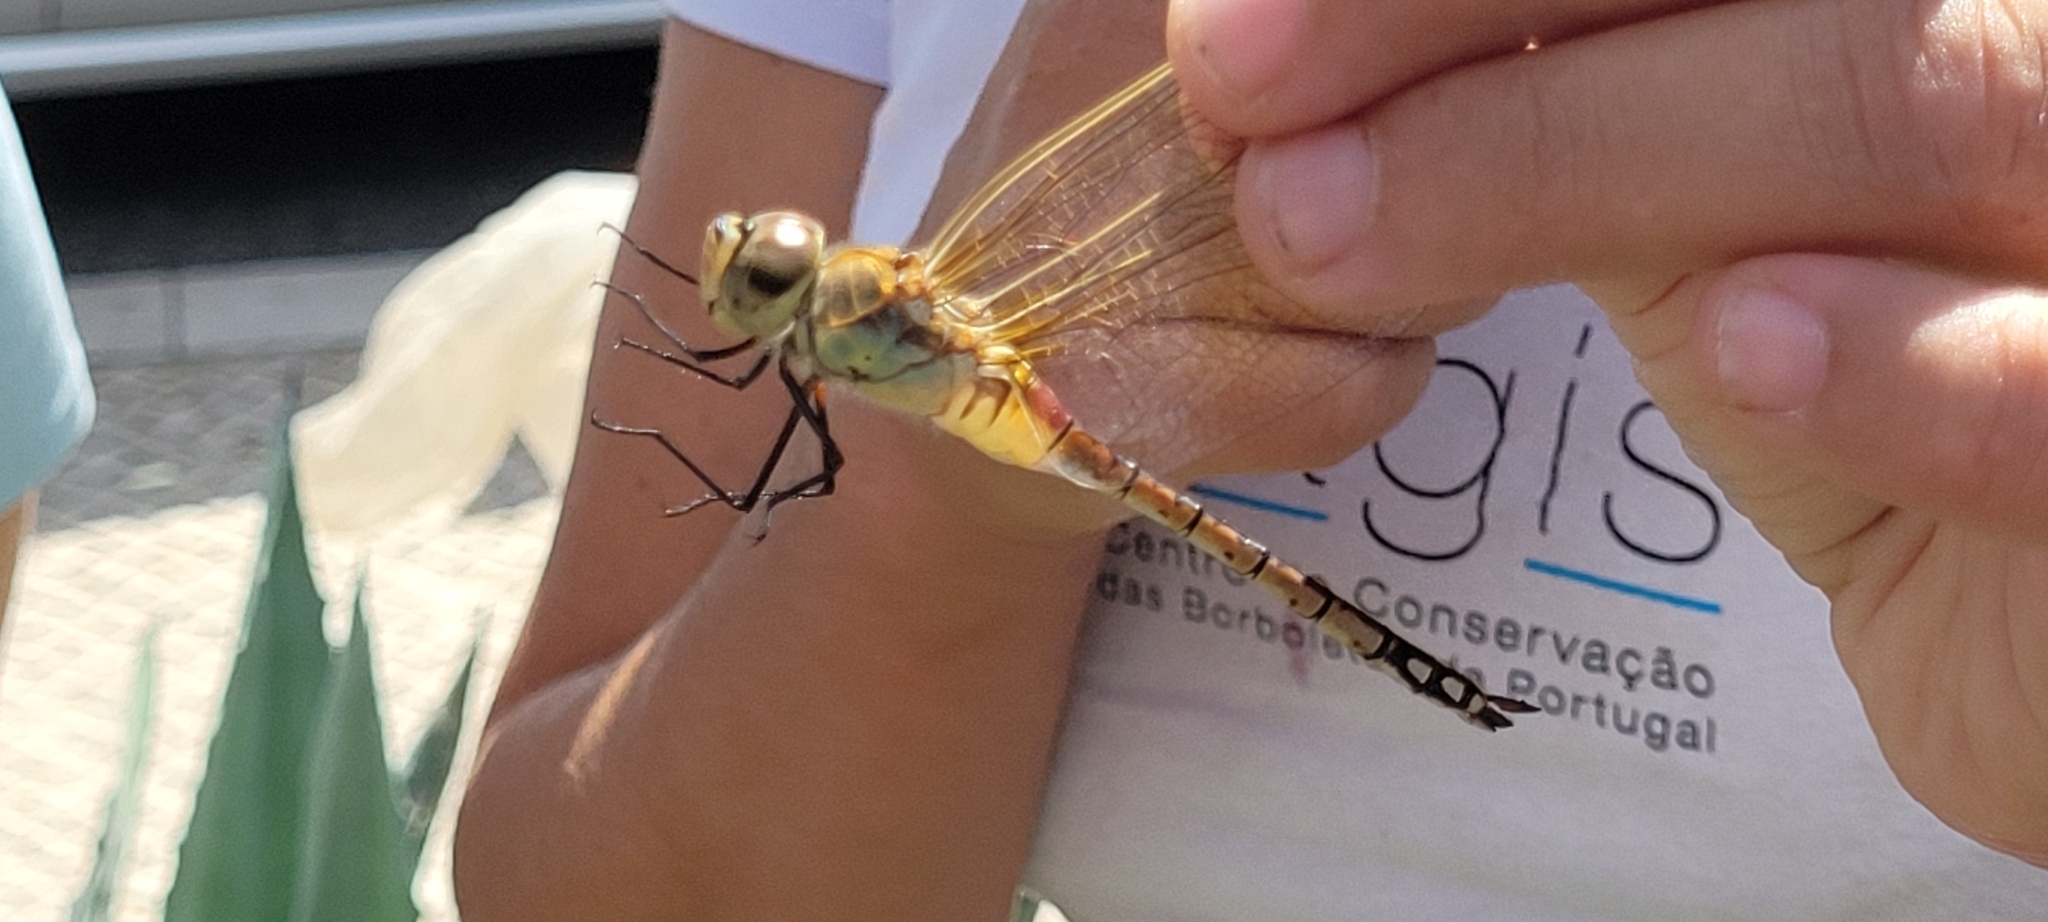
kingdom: Animalia
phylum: Arthropoda
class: Insecta
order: Odonata
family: Aeshnidae
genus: Anax
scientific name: Anax ephippiger
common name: Vagrant emperor
